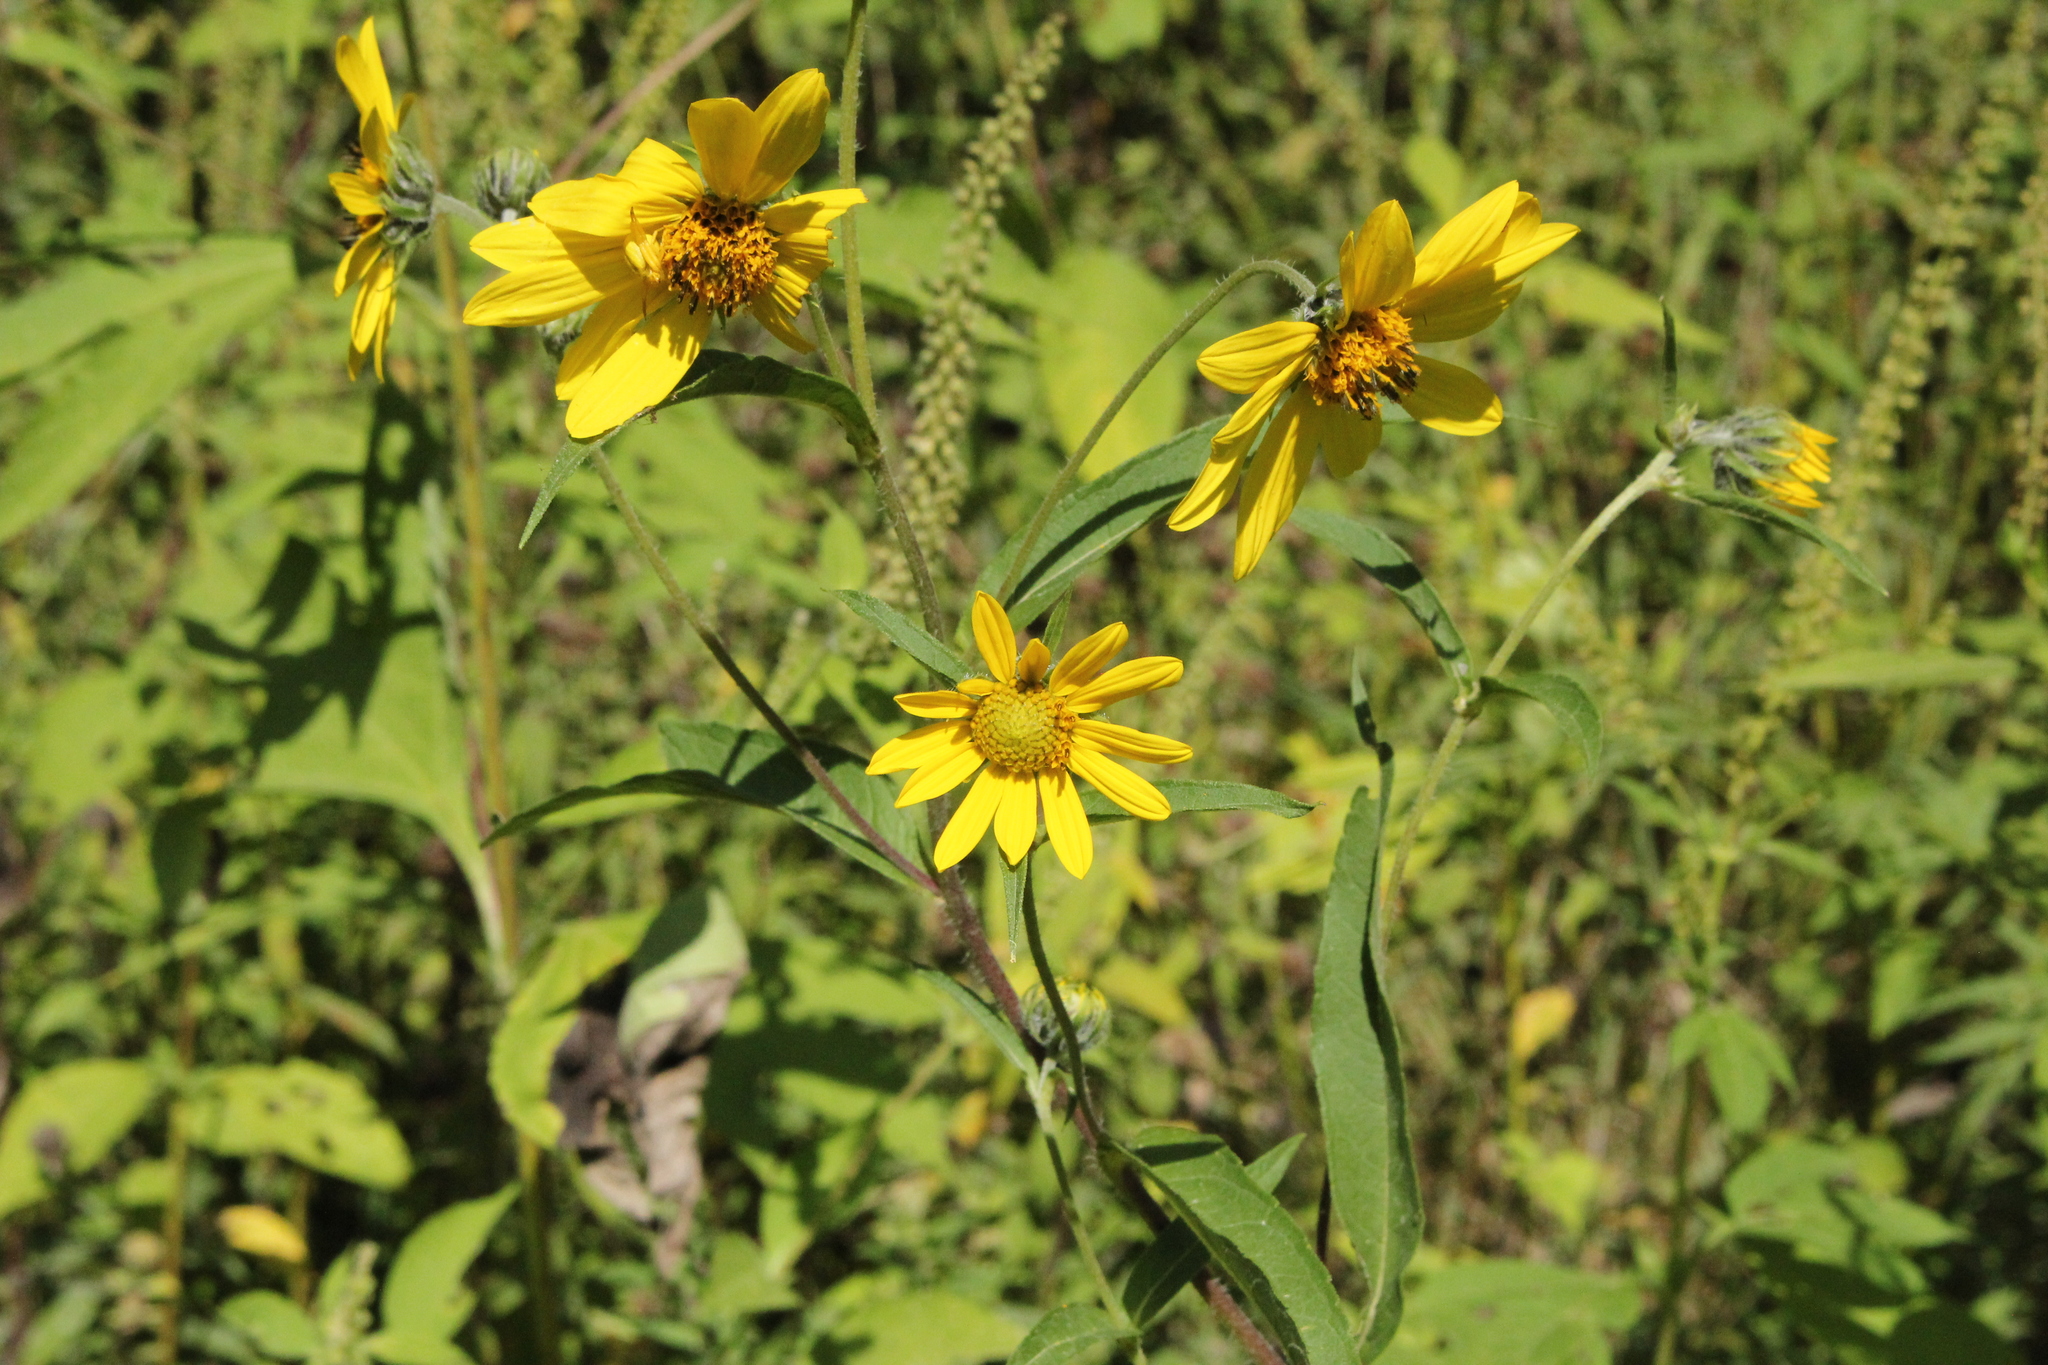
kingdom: Plantae
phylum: Tracheophyta
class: Magnoliopsida
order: Asterales
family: Asteraceae
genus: Helianthus
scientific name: Helianthus giganteus
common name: Giant sunflower
